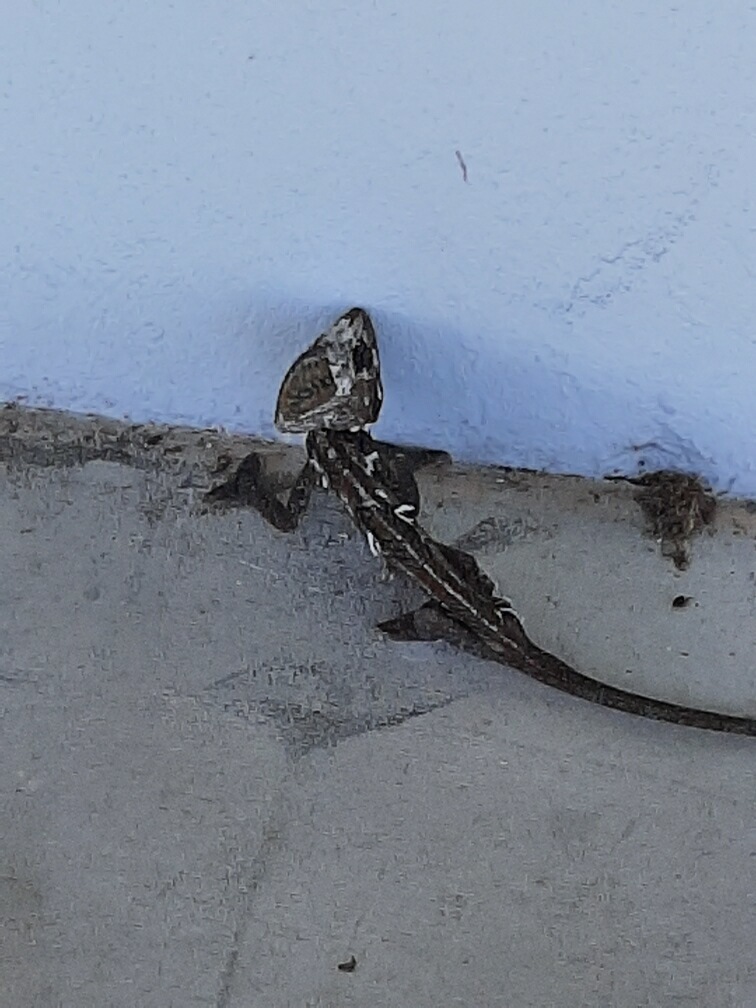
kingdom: Animalia
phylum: Chordata
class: Squamata
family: Chamaeleonidae
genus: Chamaeleo
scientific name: Chamaeleo calyptratus
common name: Veiled chameleon
